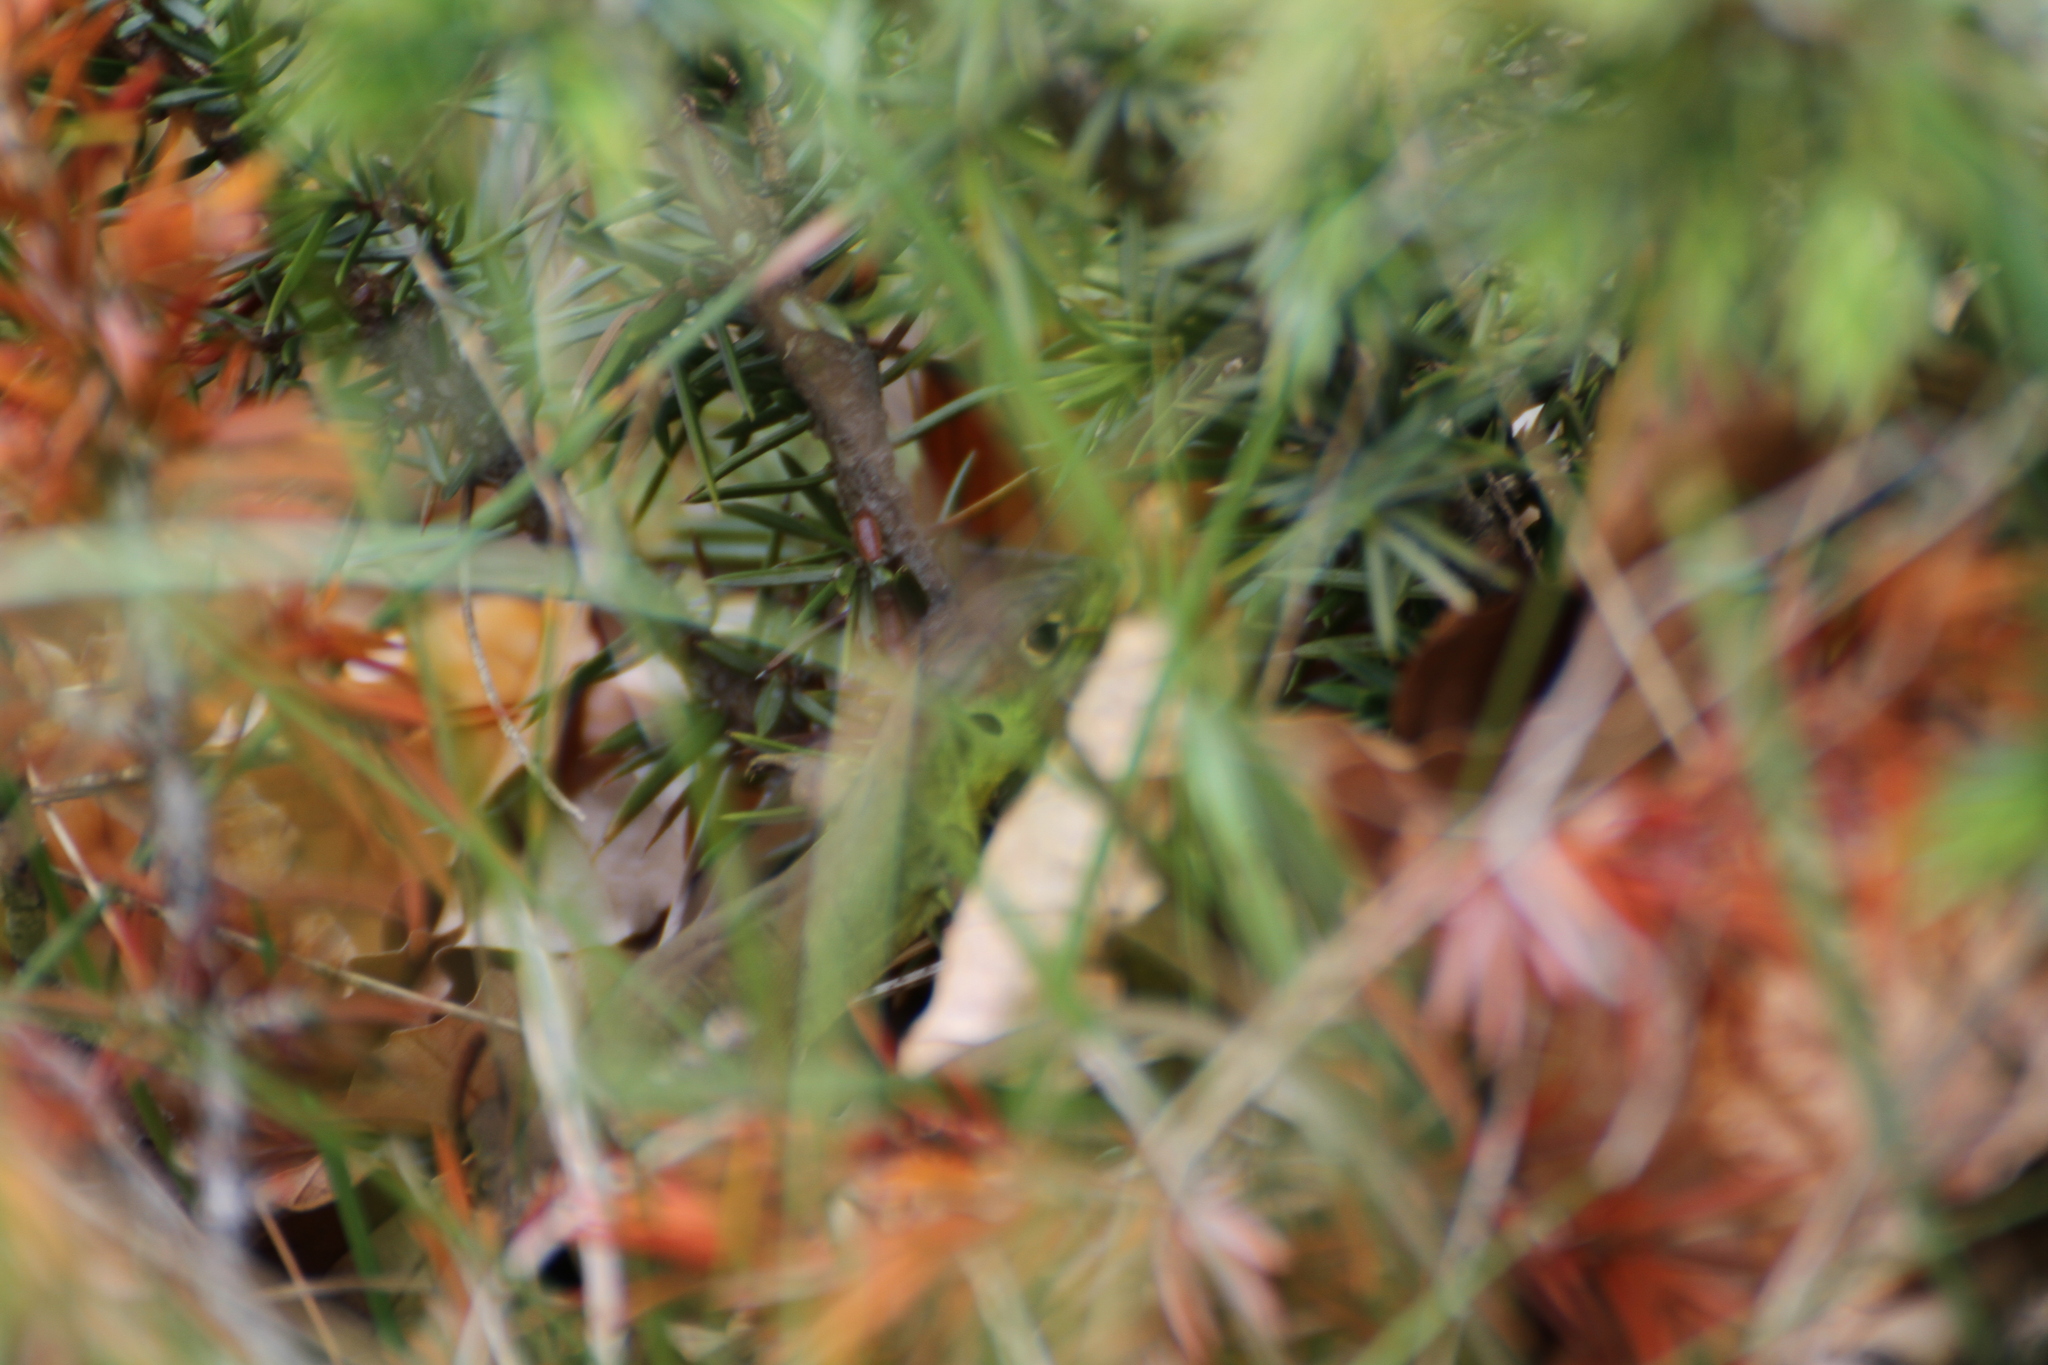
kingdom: Animalia
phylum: Chordata
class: Squamata
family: Lacertidae
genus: Lacerta
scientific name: Lacerta bilineata
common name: Western green lizard
